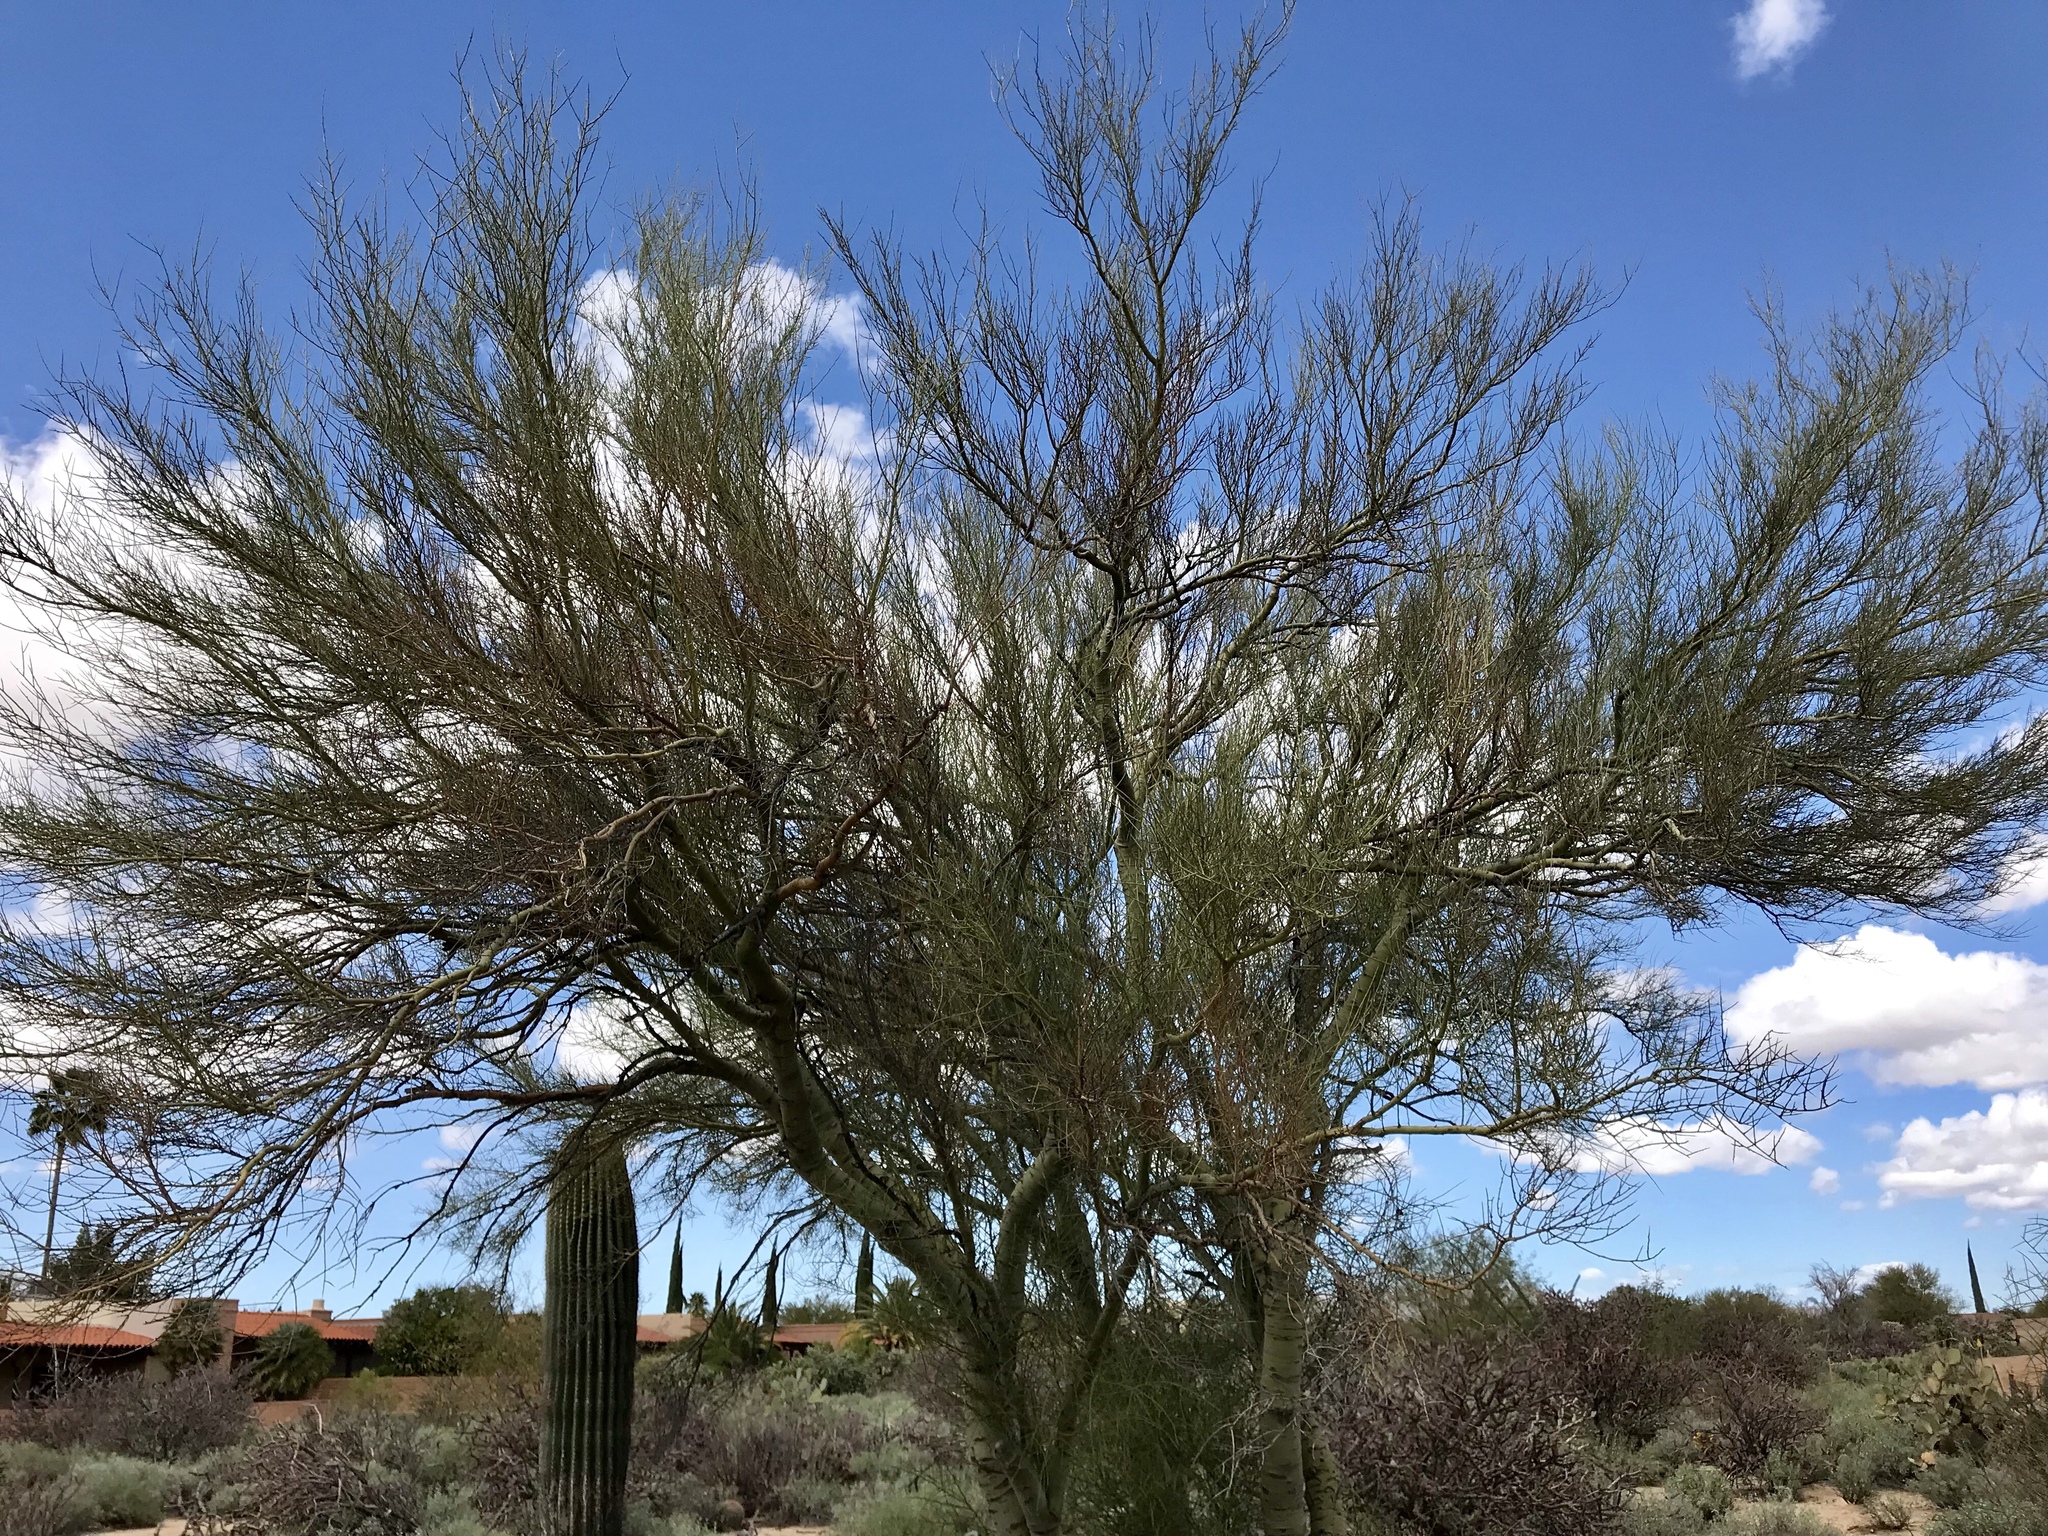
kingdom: Plantae
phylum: Tracheophyta
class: Magnoliopsida
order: Fabales
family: Fabaceae
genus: Parkinsonia
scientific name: Parkinsonia microphylla
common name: Yellow paloverde
